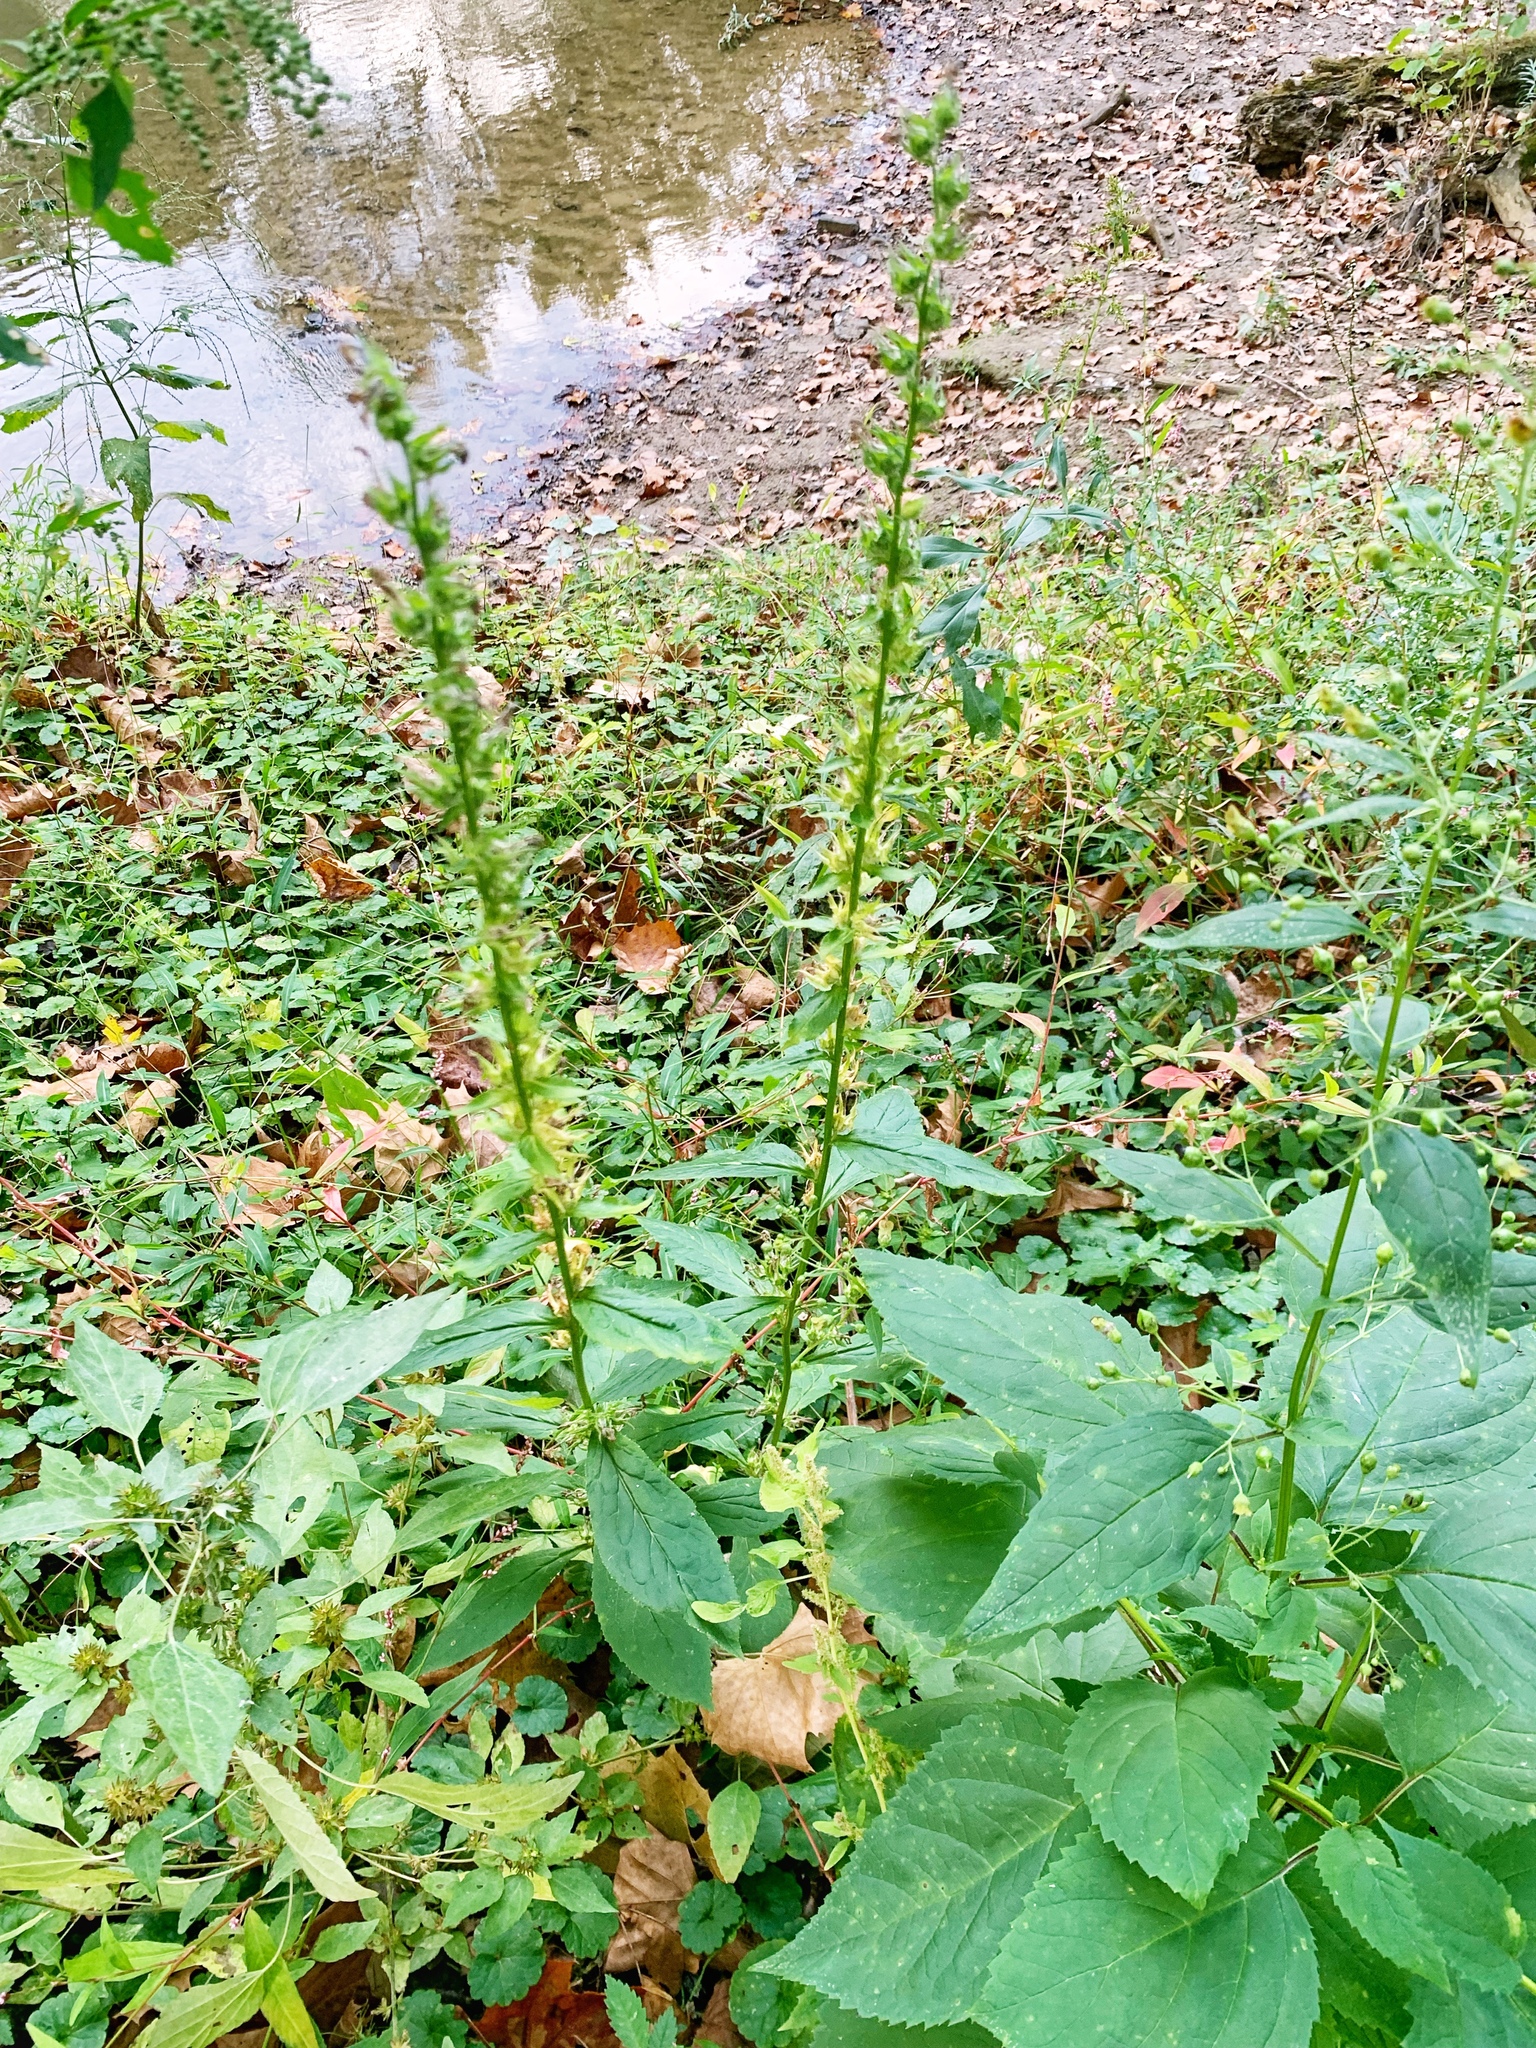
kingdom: Plantae
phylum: Tracheophyta
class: Magnoliopsida
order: Asterales
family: Campanulaceae
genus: Lobelia
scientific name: Lobelia siphilitica
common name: Great lobelia
